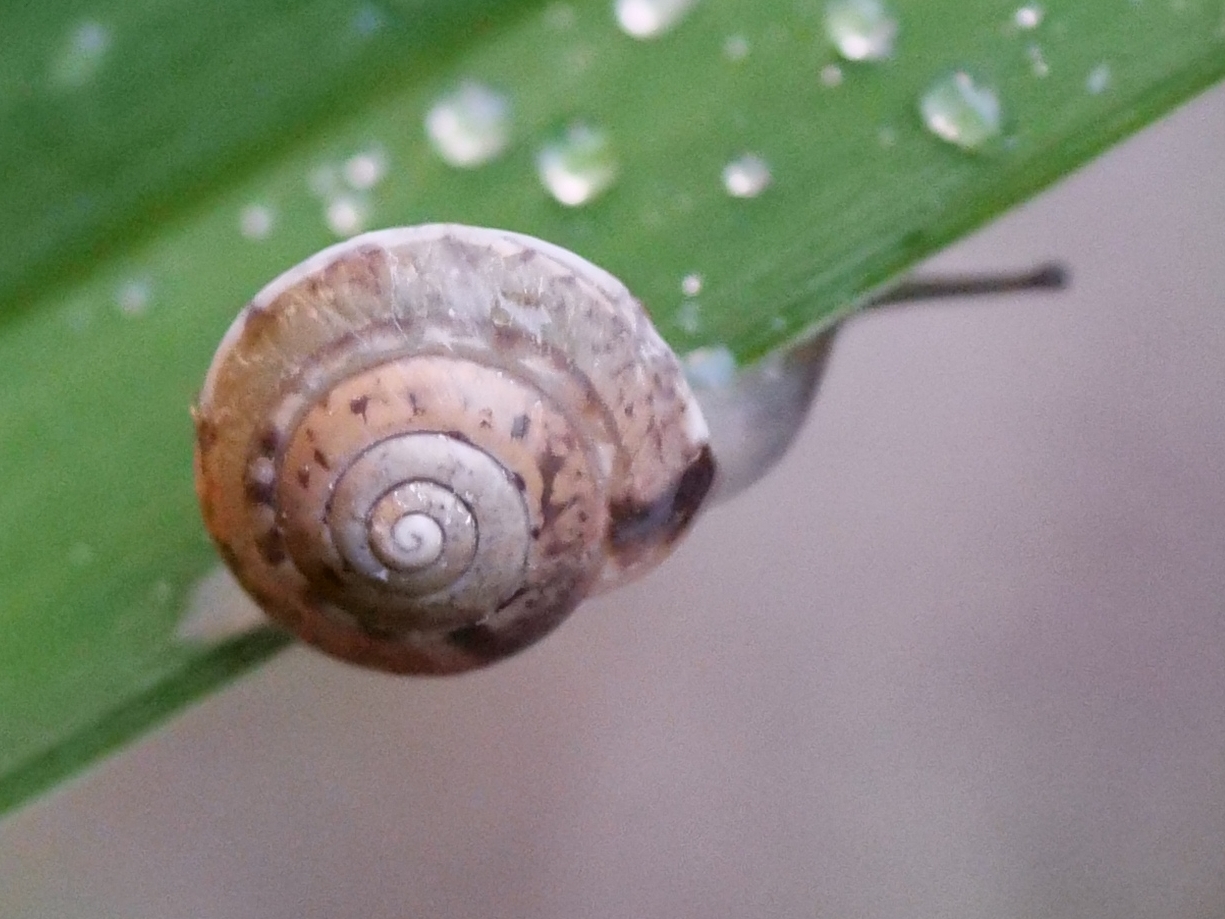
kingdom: Animalia
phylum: Mollusca
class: Gastropoda
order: Stylommatophora
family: Hygromiidae
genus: Hygromia
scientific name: Hygromia cinctella
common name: Girdled snail
